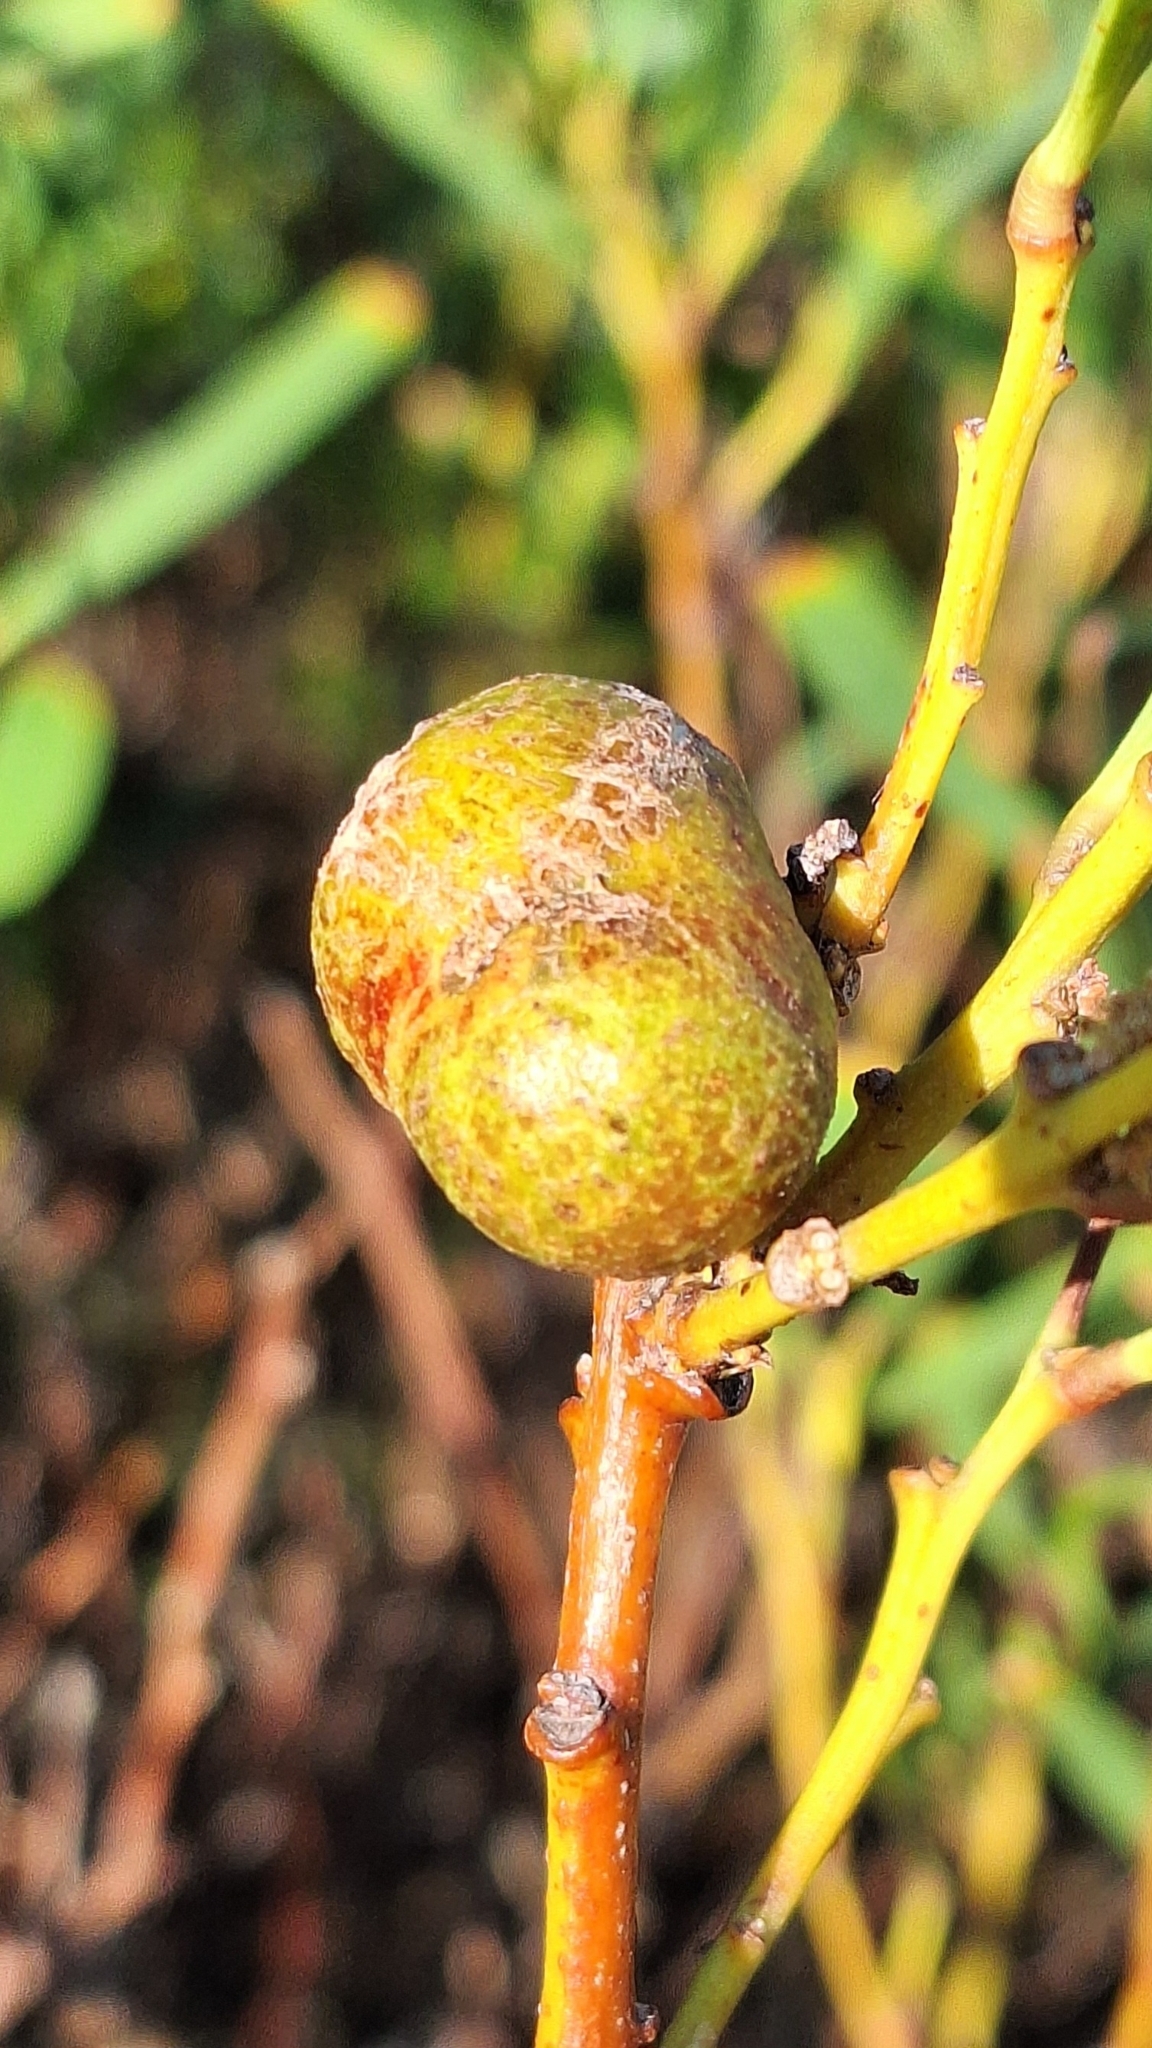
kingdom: Animalia
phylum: Arthropoda
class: Insecta
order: Hymenoptera
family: Pteromalidae
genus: Trichilogaster
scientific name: Trichilogaster acaciaelongifoliae
